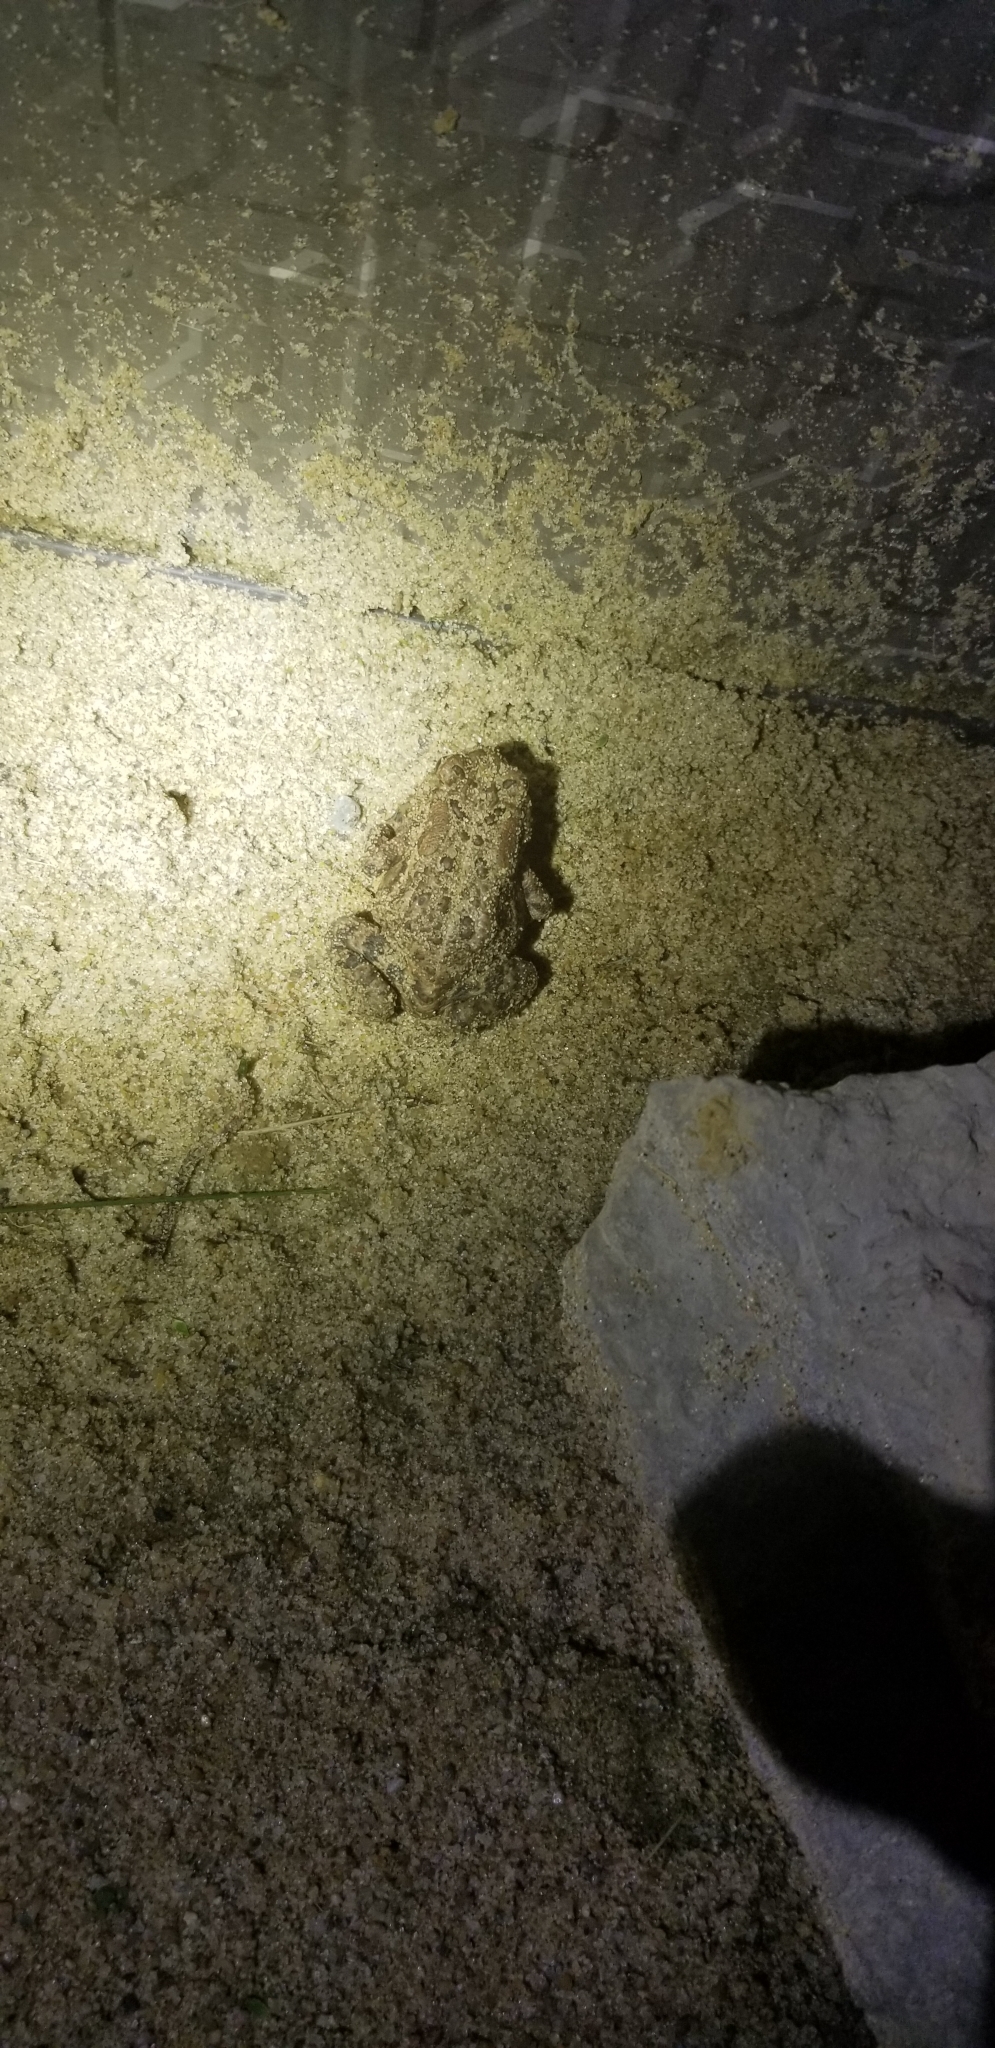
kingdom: Animalia
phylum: Chordata
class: Amphibia
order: Anura
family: Bufonidae
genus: Anaxyrus
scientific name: Anaxyrus woodhousii
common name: Woodhouse's toad
